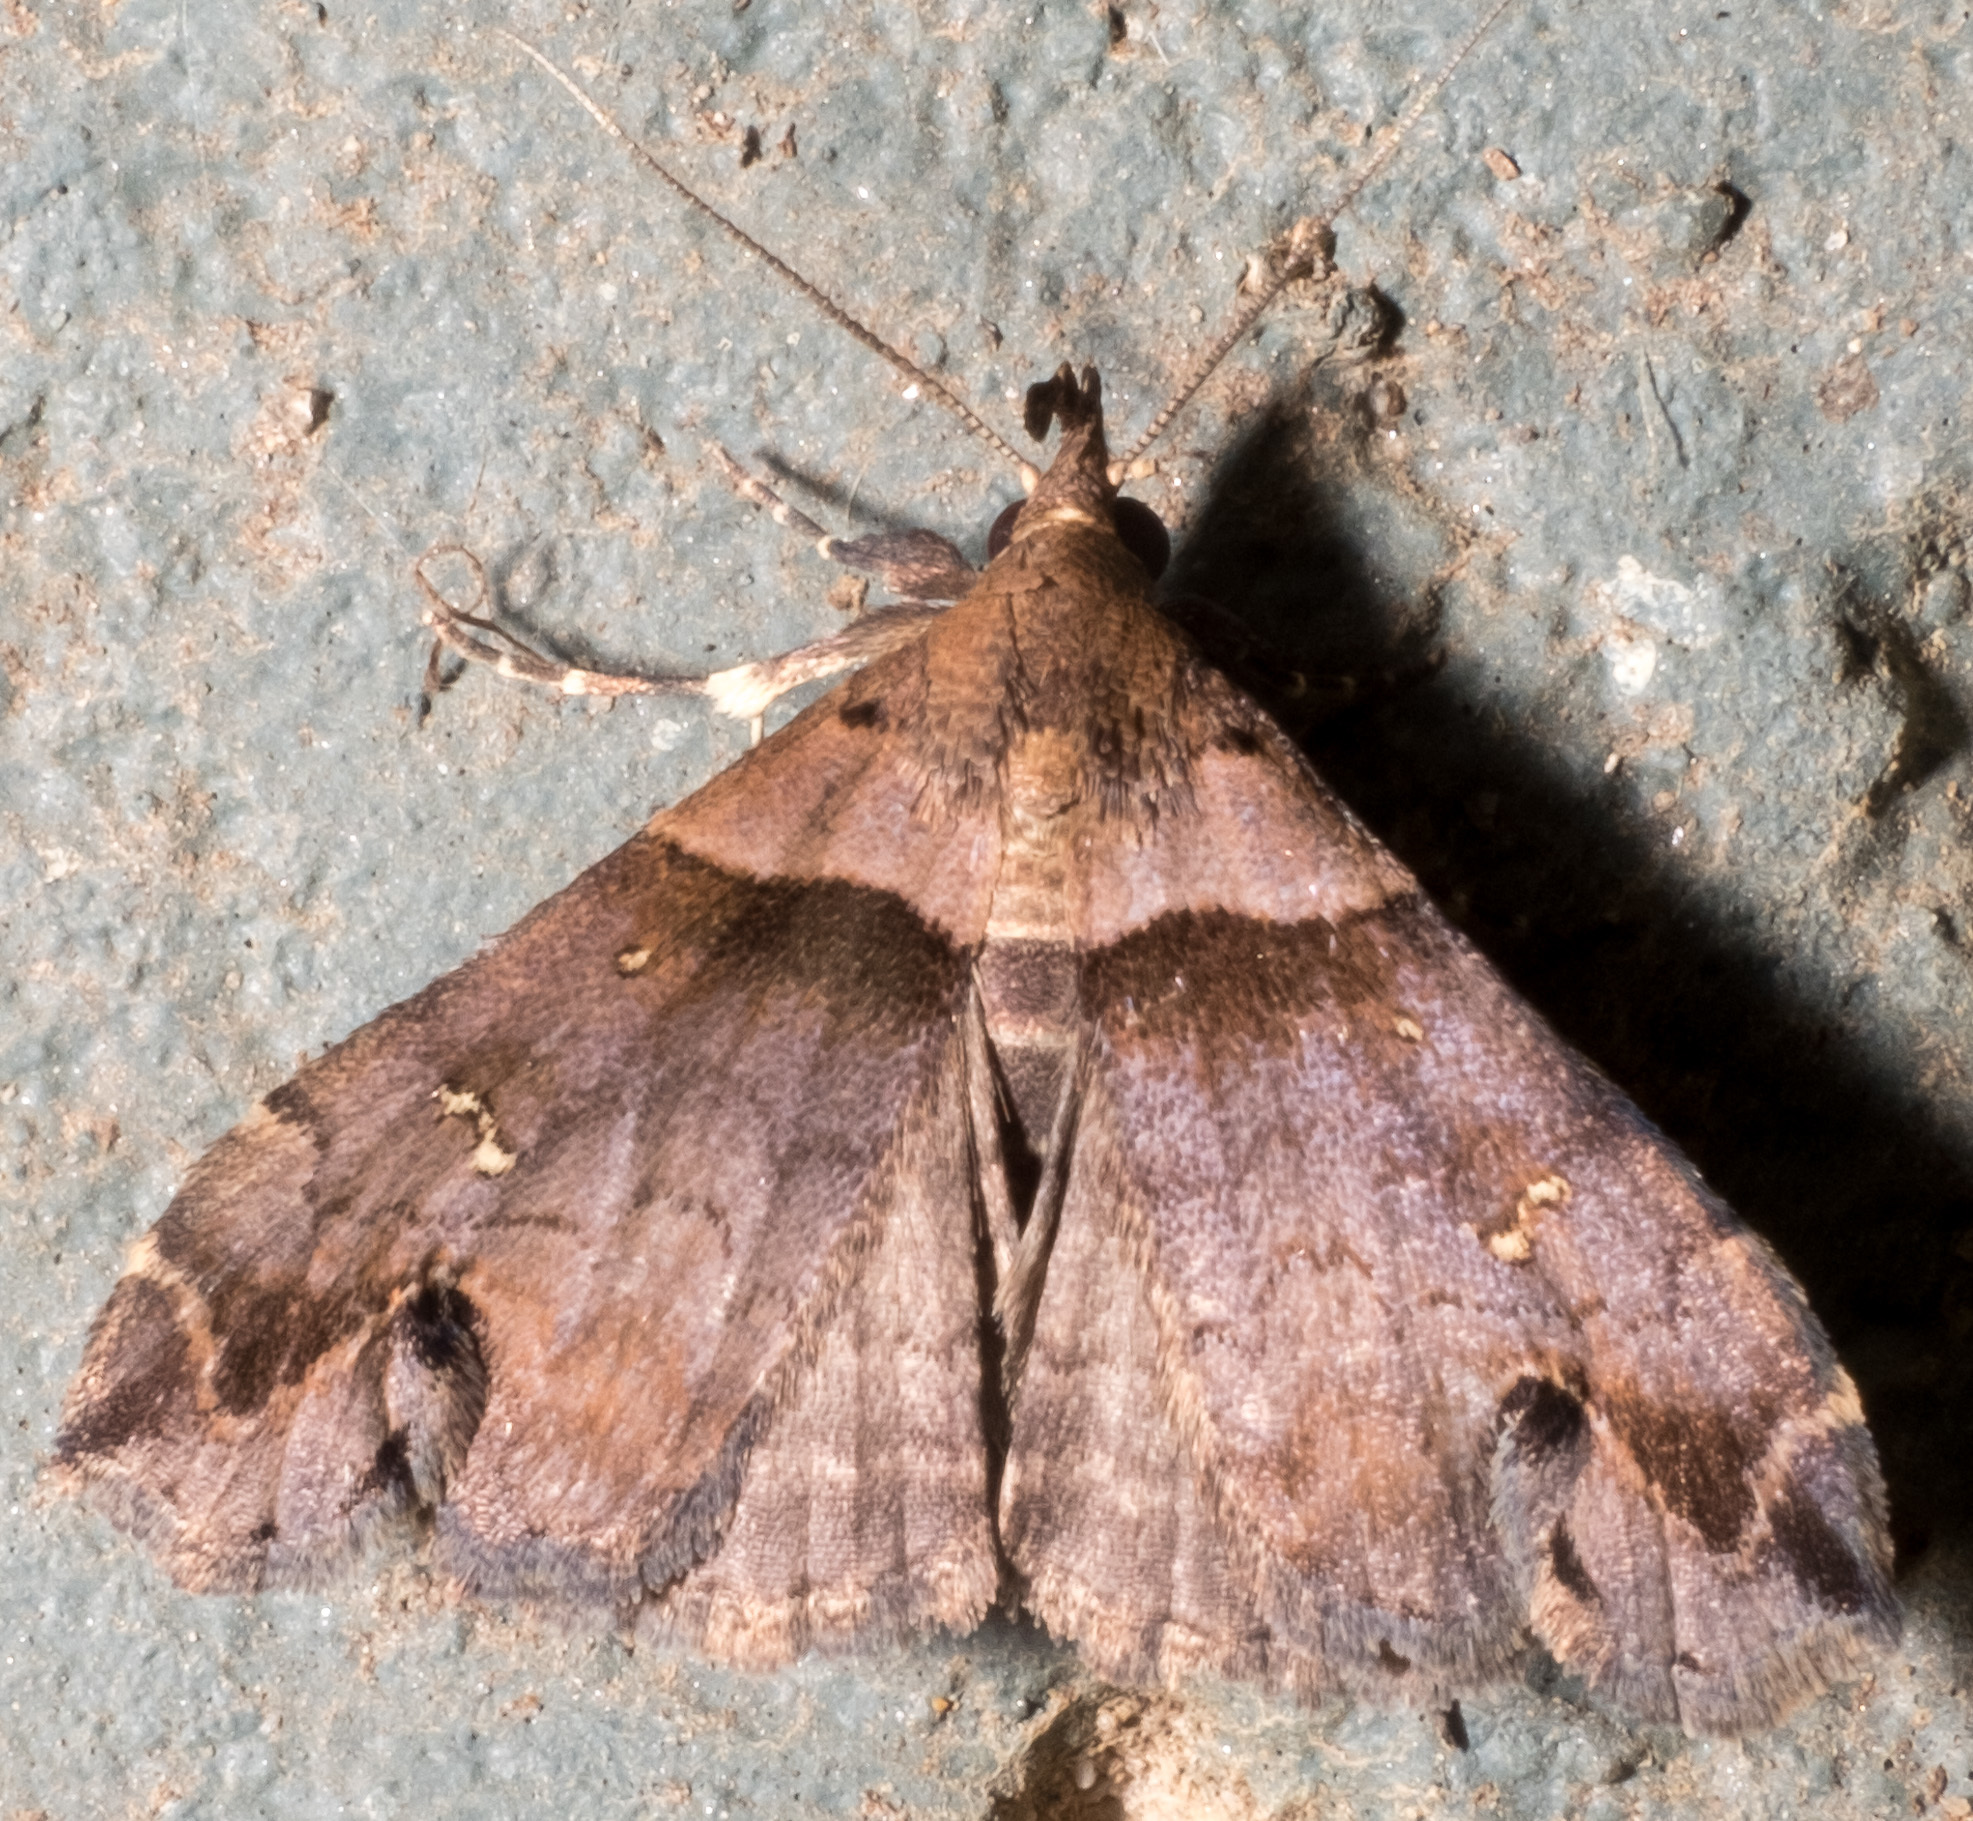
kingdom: Animalia
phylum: Arthropoda
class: Insecta
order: Lepidoptera
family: Erebidae
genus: Lascoria
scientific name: Lascoria ambigualis
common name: Ambiguous moth
